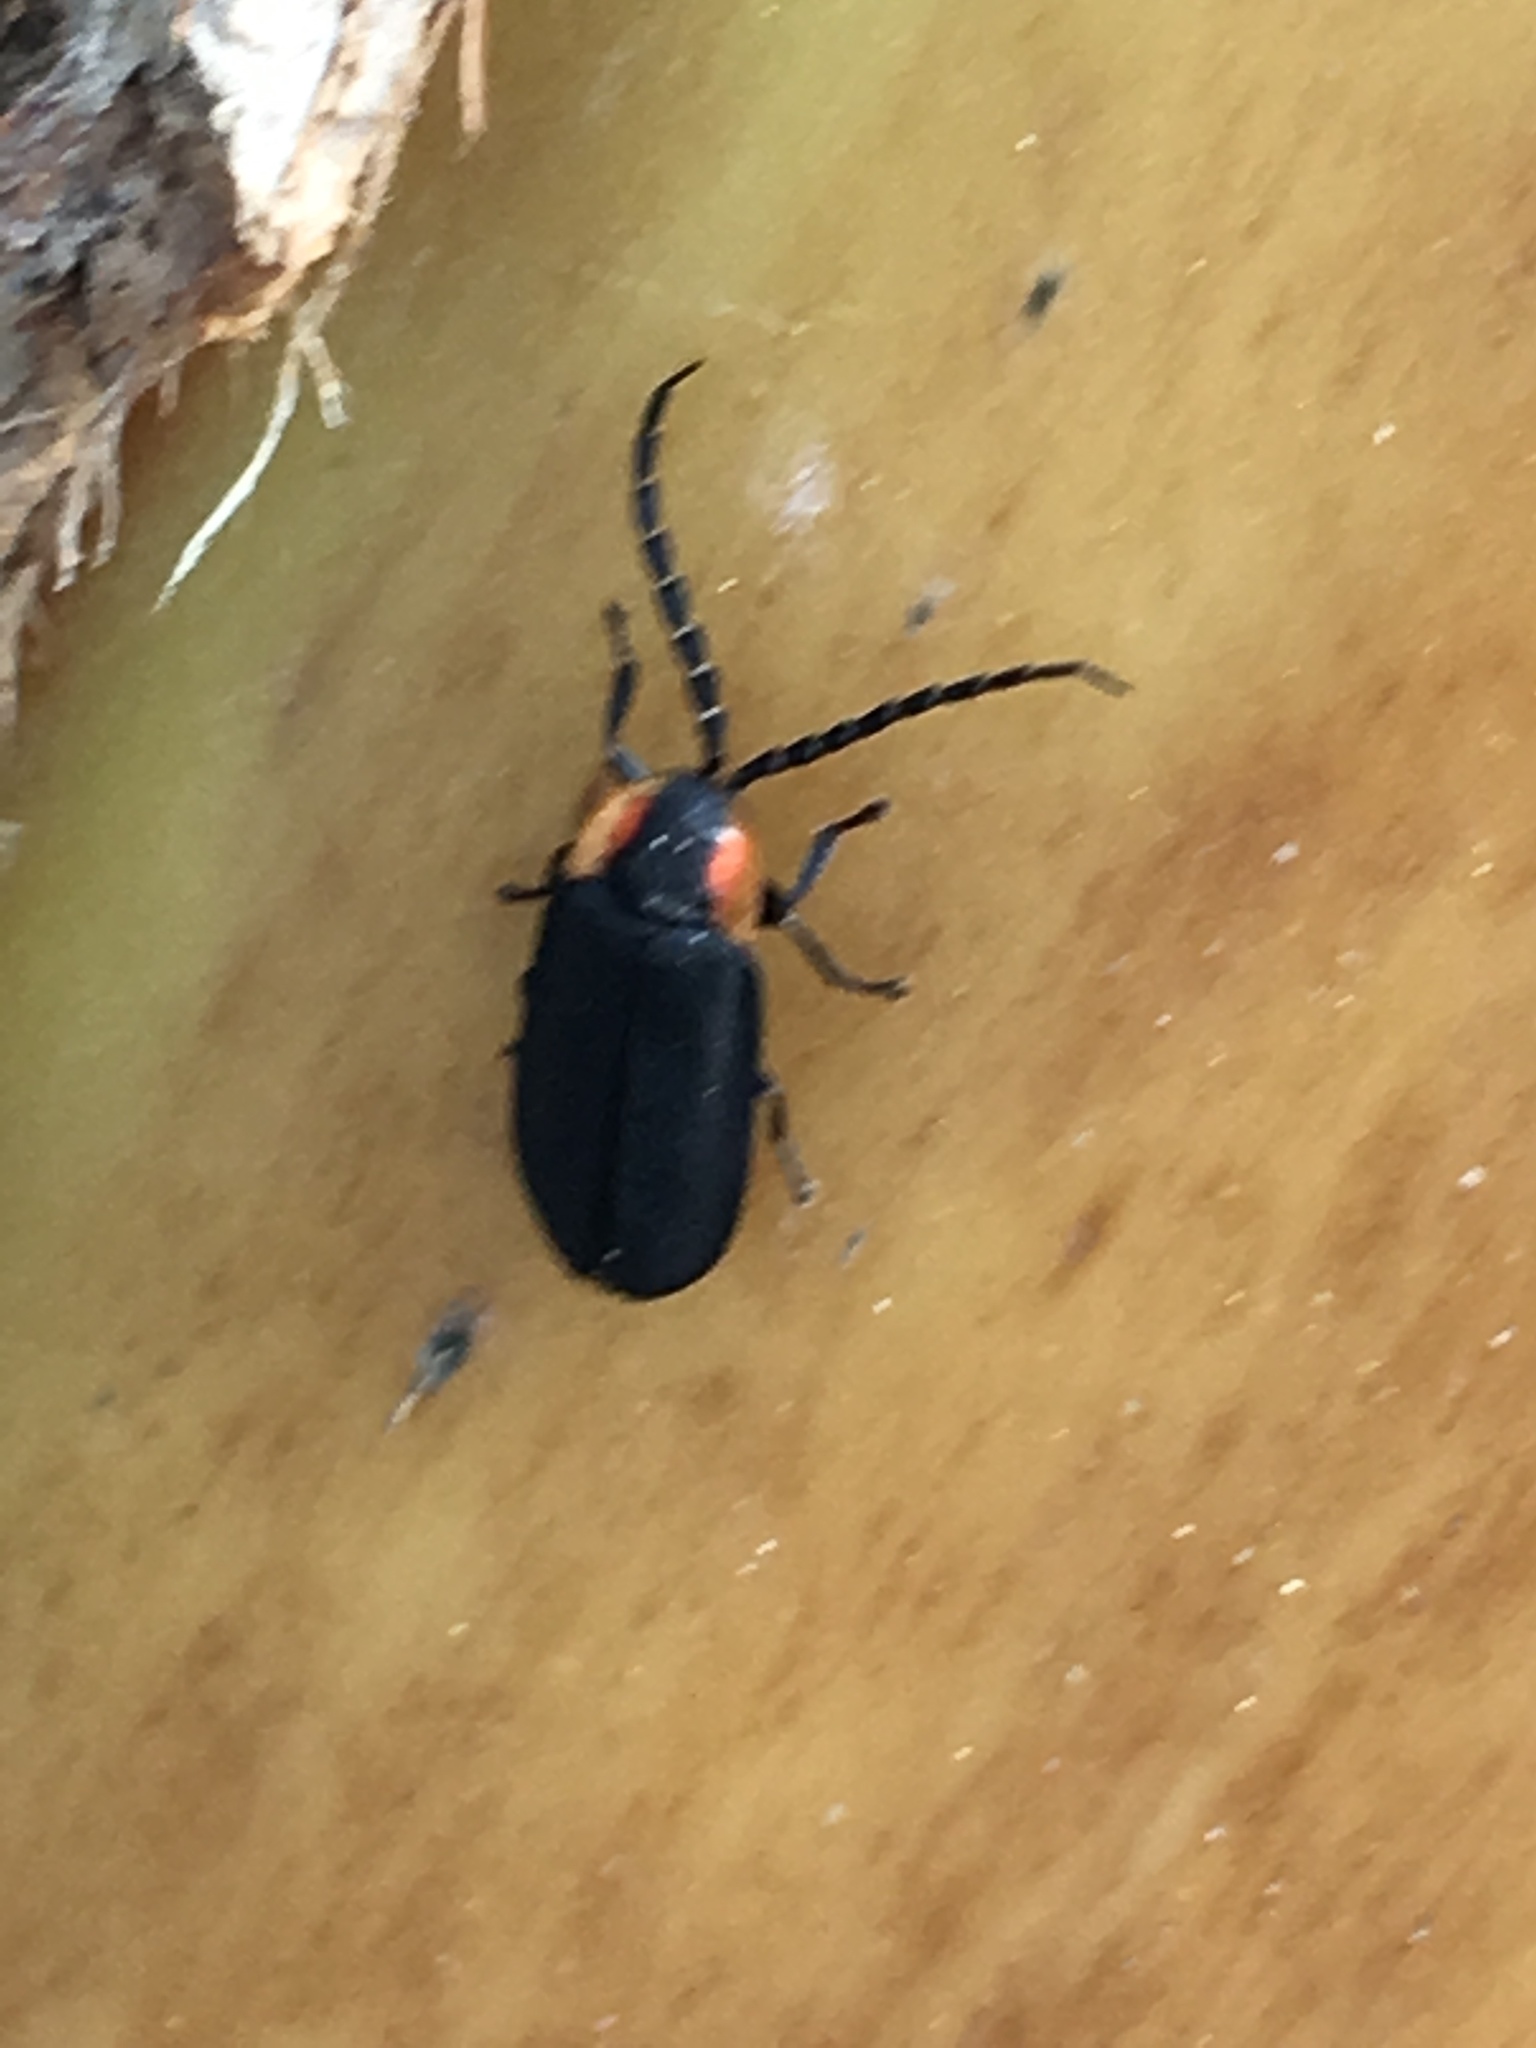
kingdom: Animalia
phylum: Arthropoda
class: Insecta
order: Coleoptera
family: Lampyridae
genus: Lucidota
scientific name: Lucidota atra
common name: Black firefly
